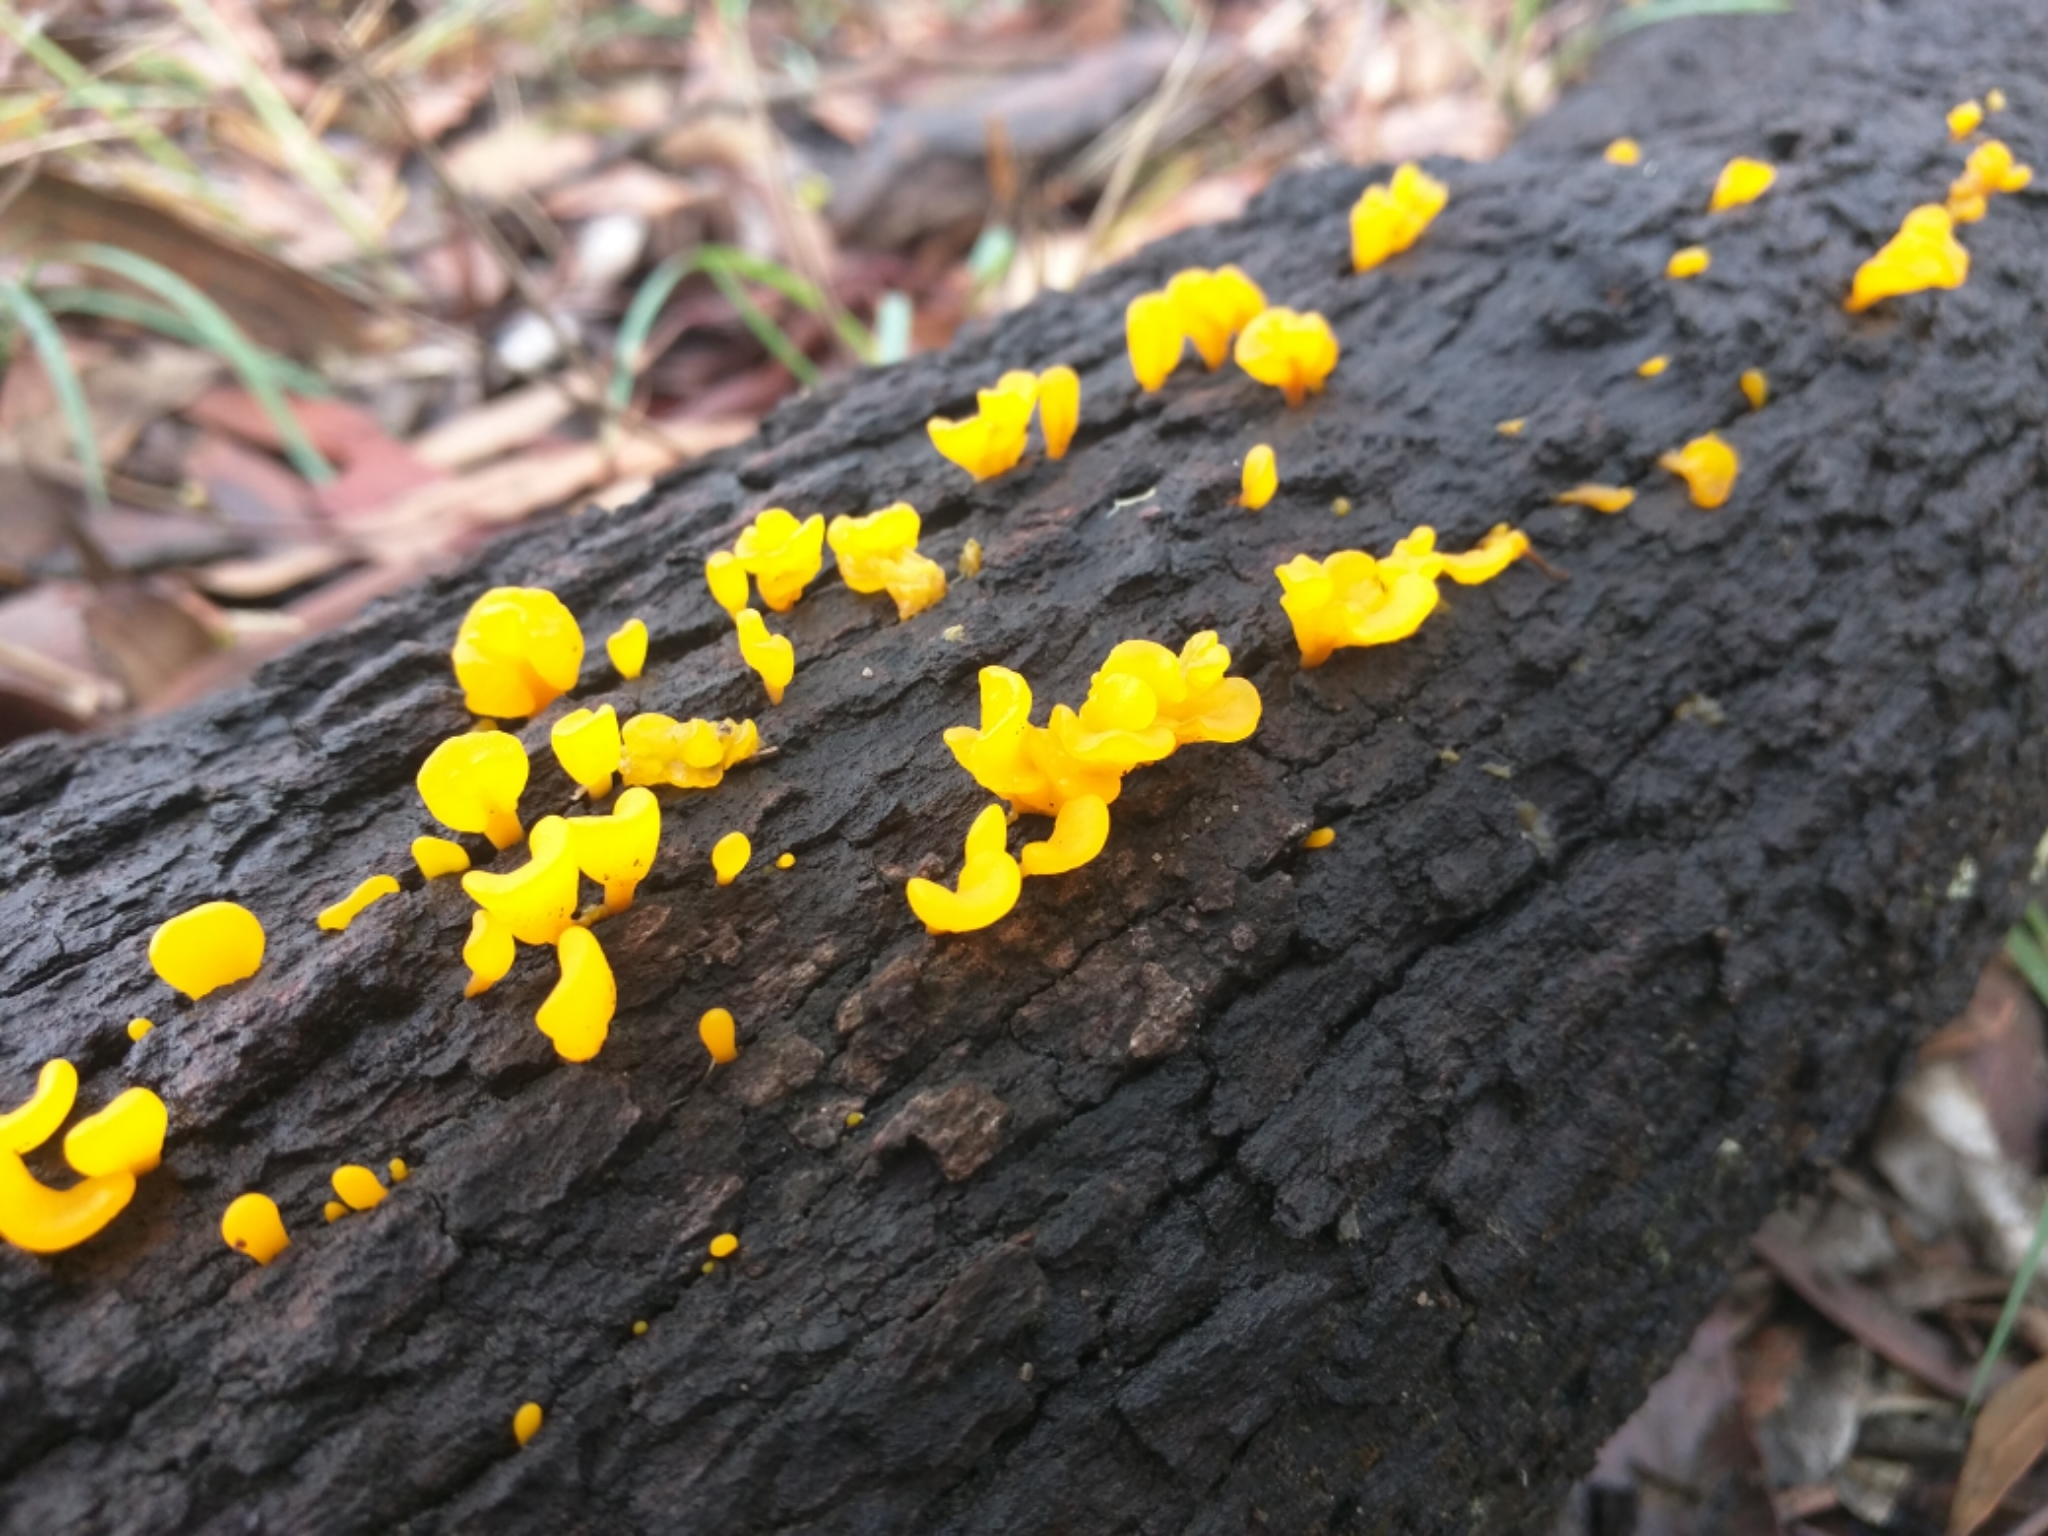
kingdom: Fungi
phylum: Basidiomycota
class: Dacrymycetes
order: Dacrymycetales
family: Dacrymycetaceae
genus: Dacrymyces
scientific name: Dacrymyces spathularius
